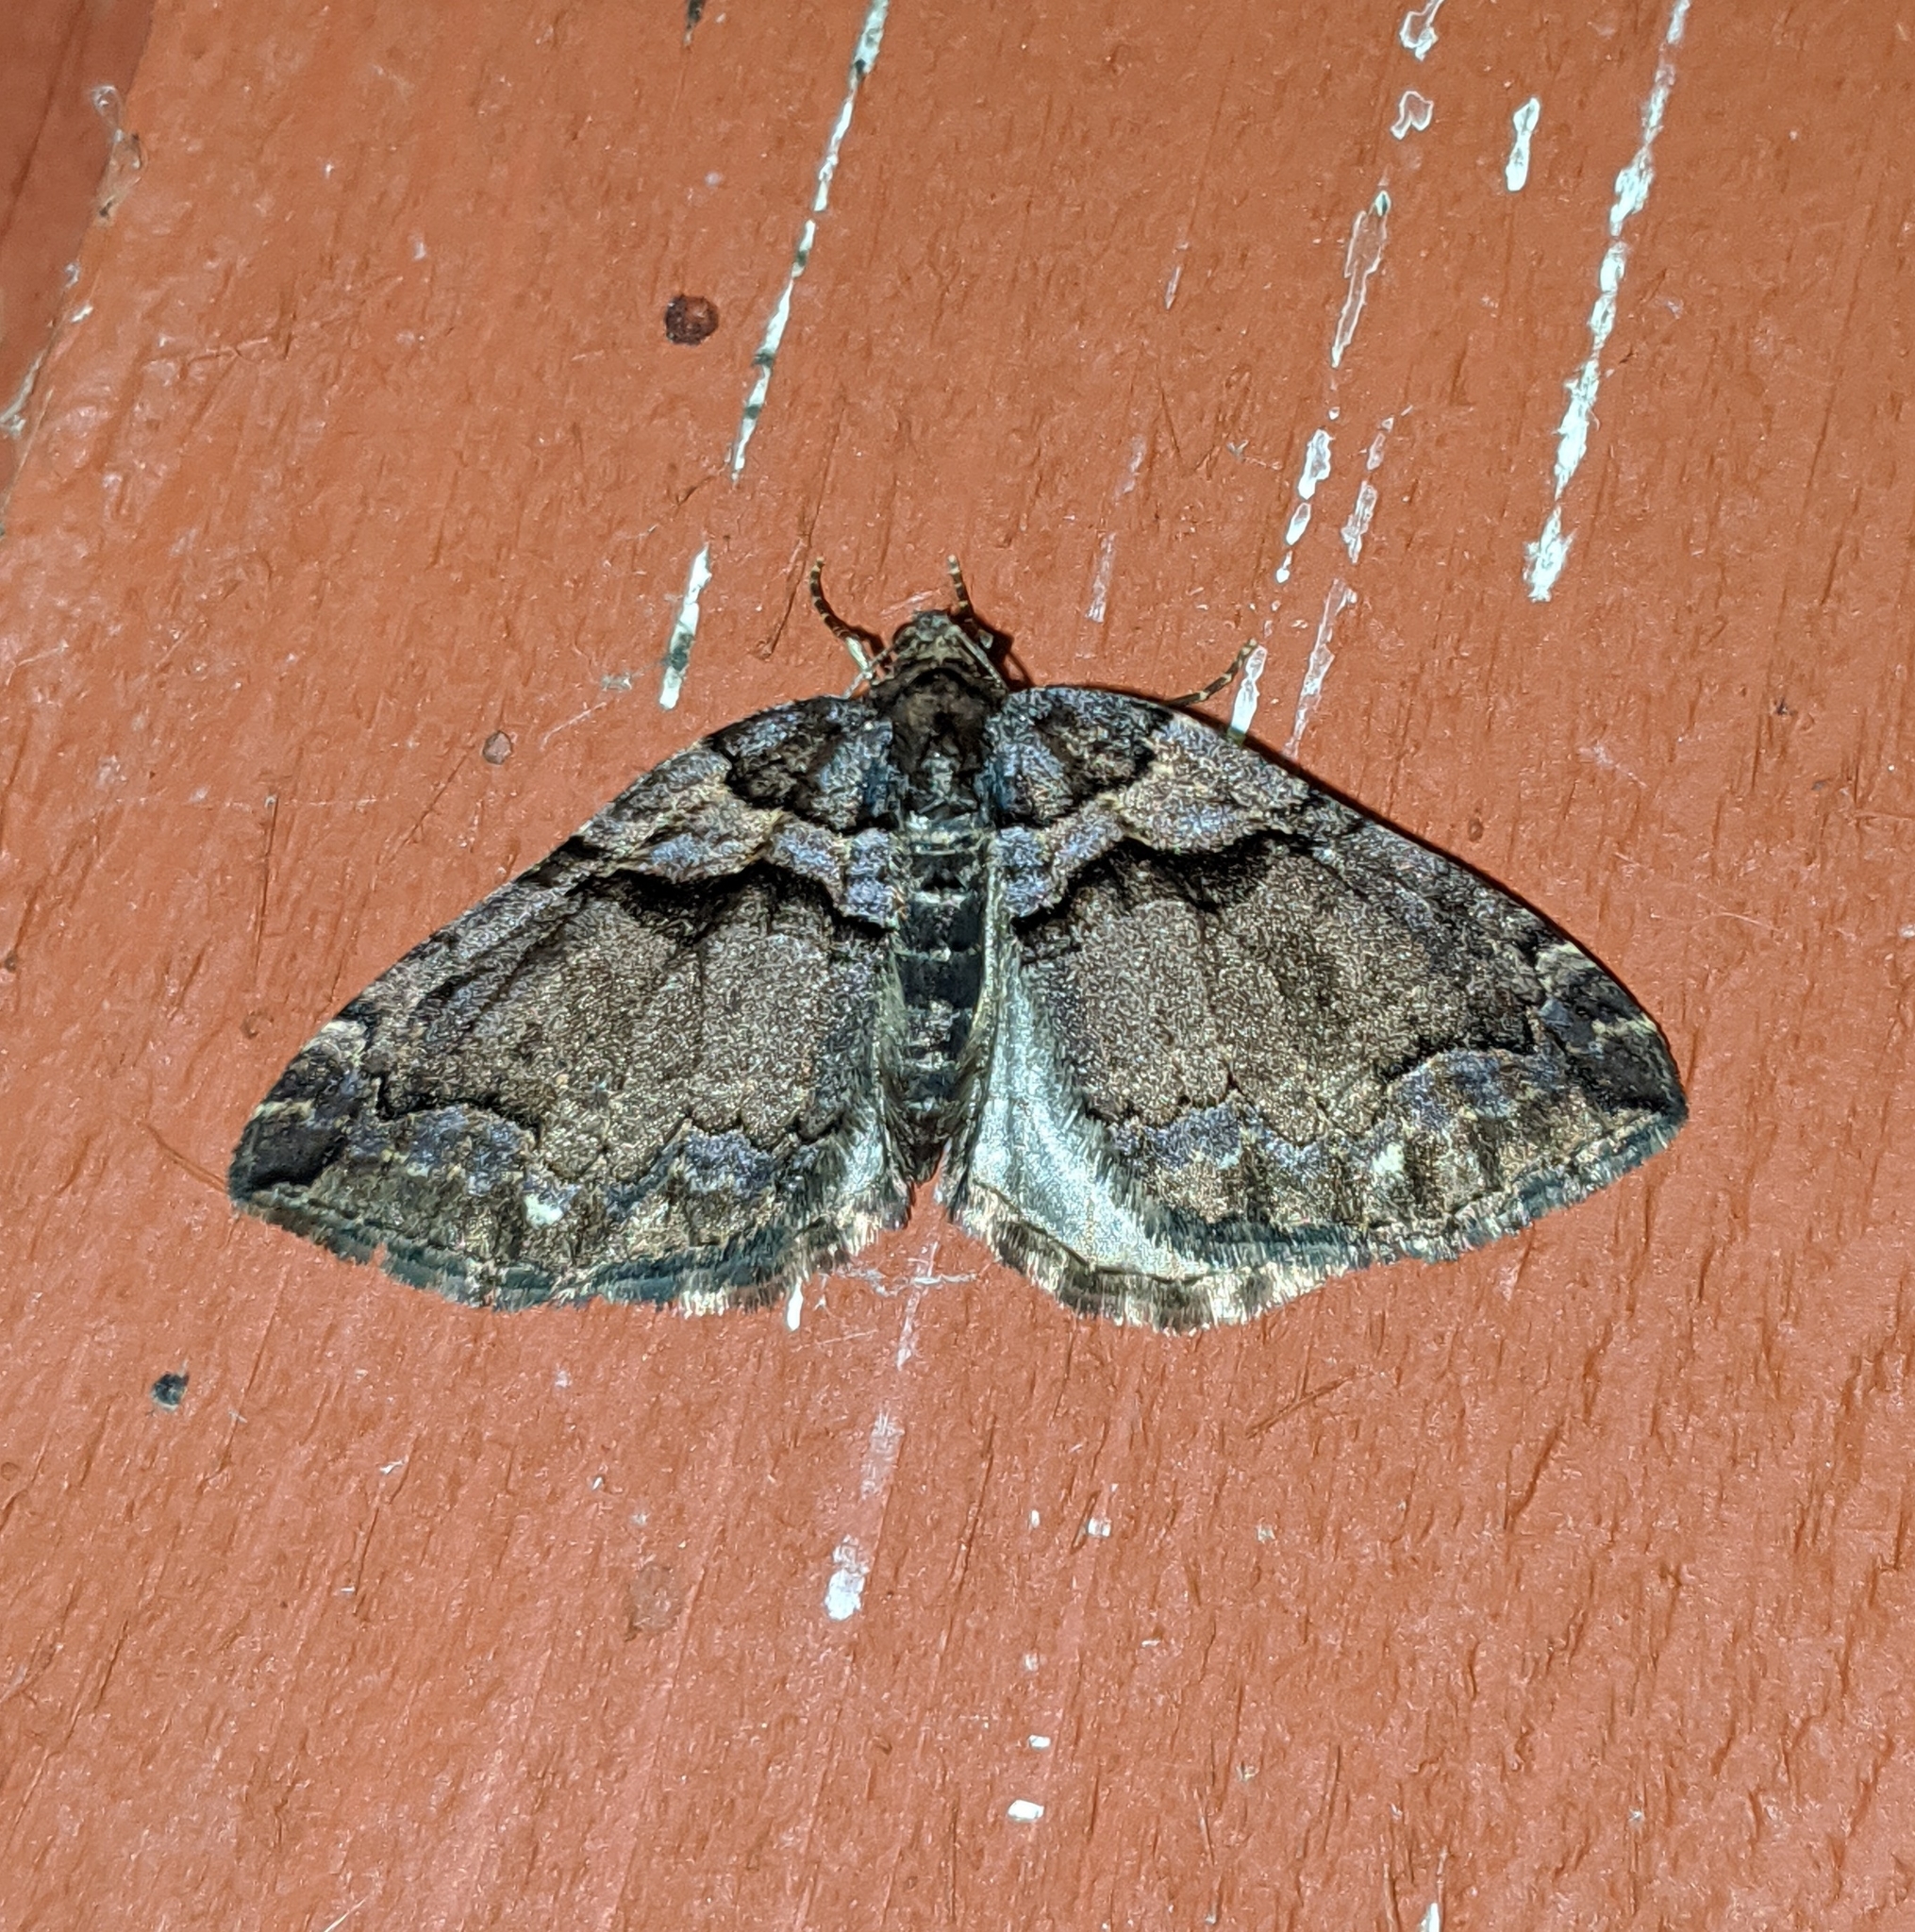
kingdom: Animalia
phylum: Arthropoda
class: Insecta
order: Lepidoptera
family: Geometridae
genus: Anticlea
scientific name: Anticlea vasiliata
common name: Variable carpet
